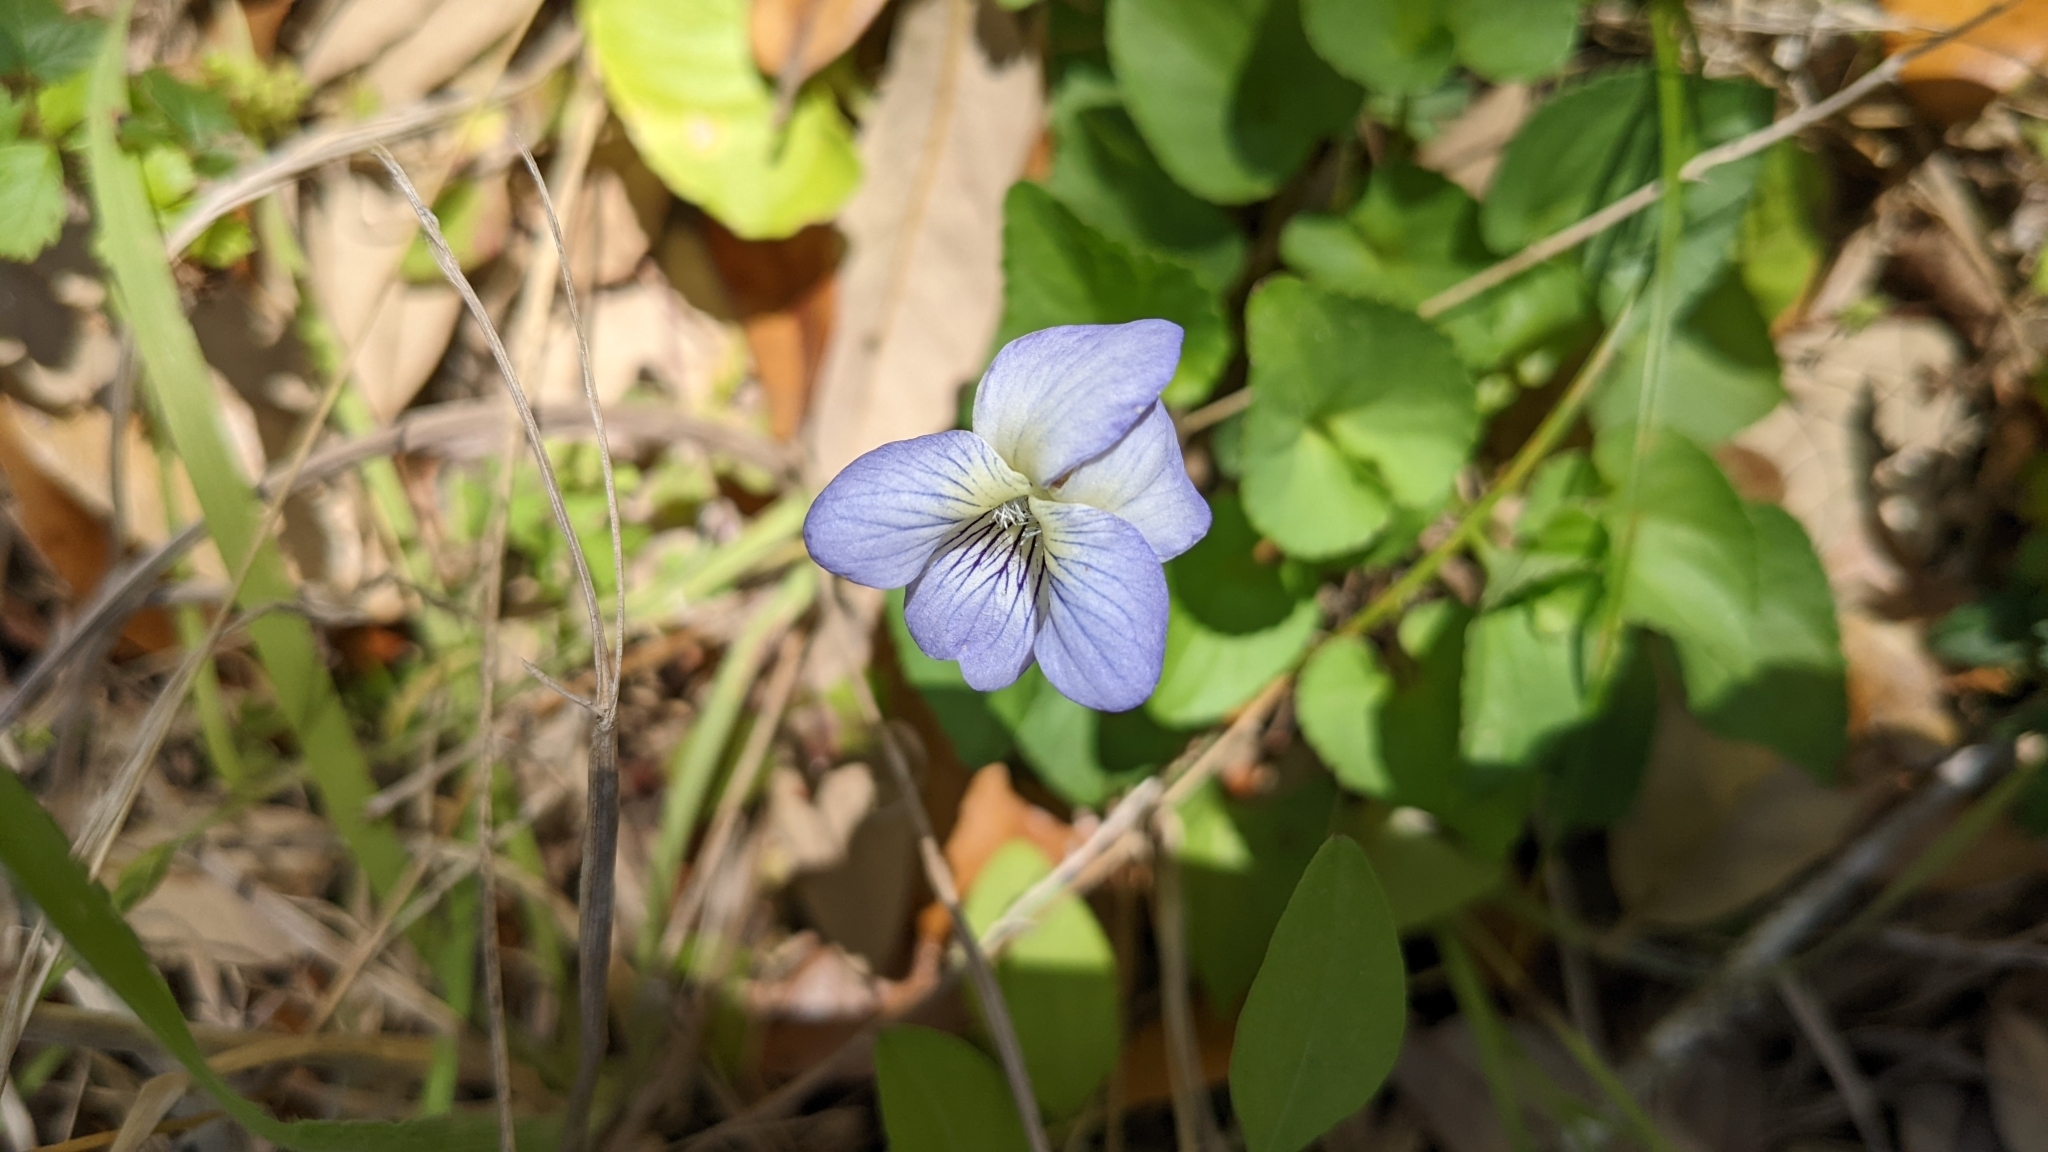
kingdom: Plantae
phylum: Tracheophyta
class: Magnoliopsida
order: Malpighiales
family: Violaceae
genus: Viola
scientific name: Viola missouriensis
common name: Missouri violet
